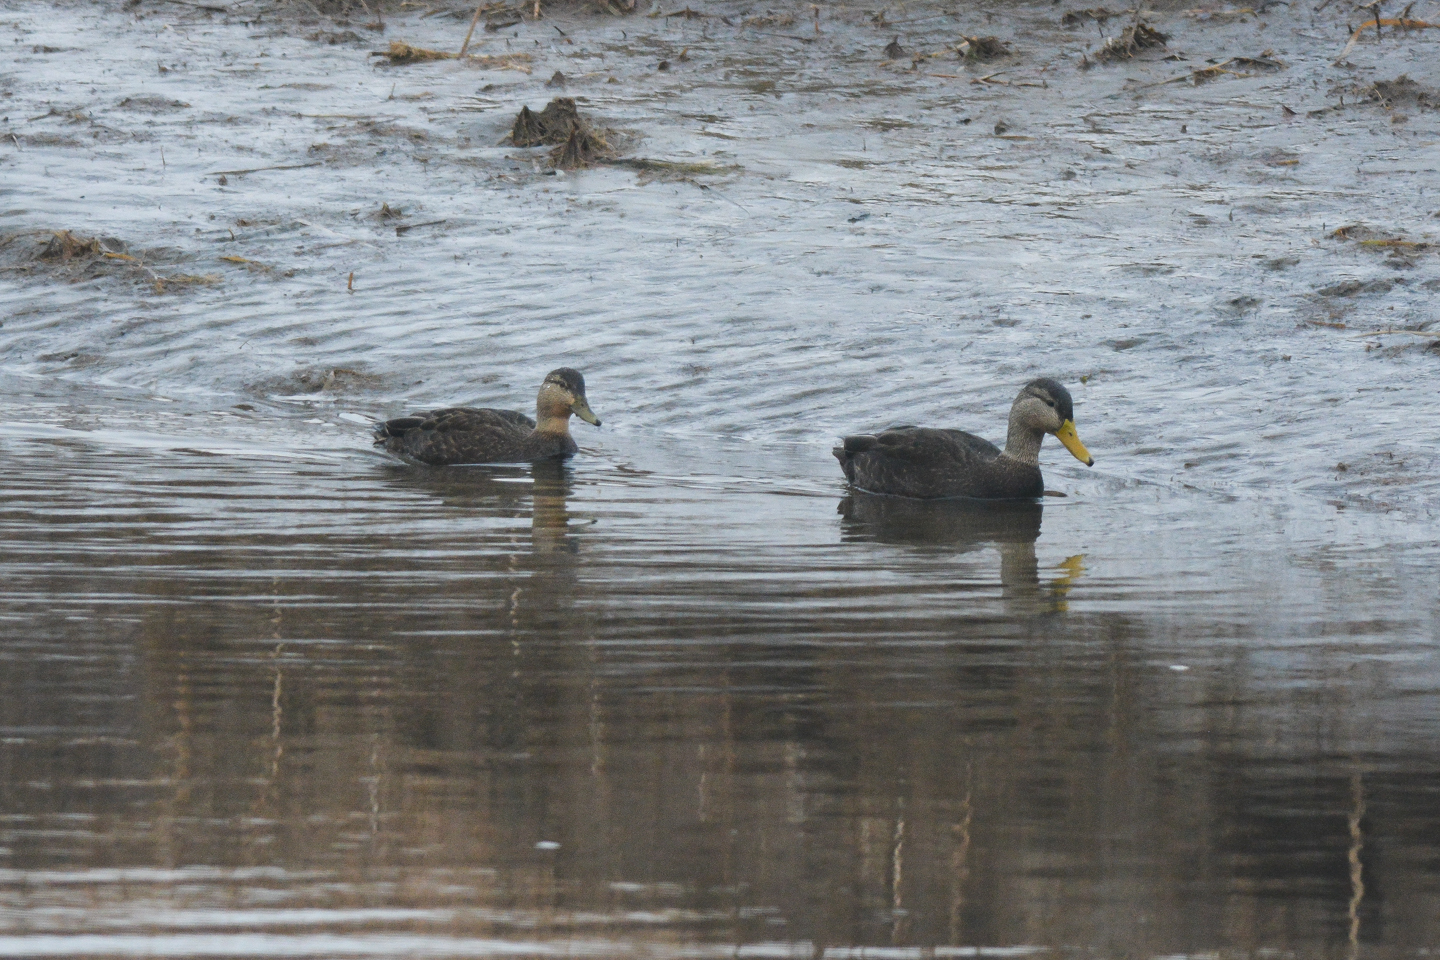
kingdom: Animalia
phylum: Chordata
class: Aves
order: Anseriformes
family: Anatidae
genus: Anas
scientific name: Anas rubripes
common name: American black duck
